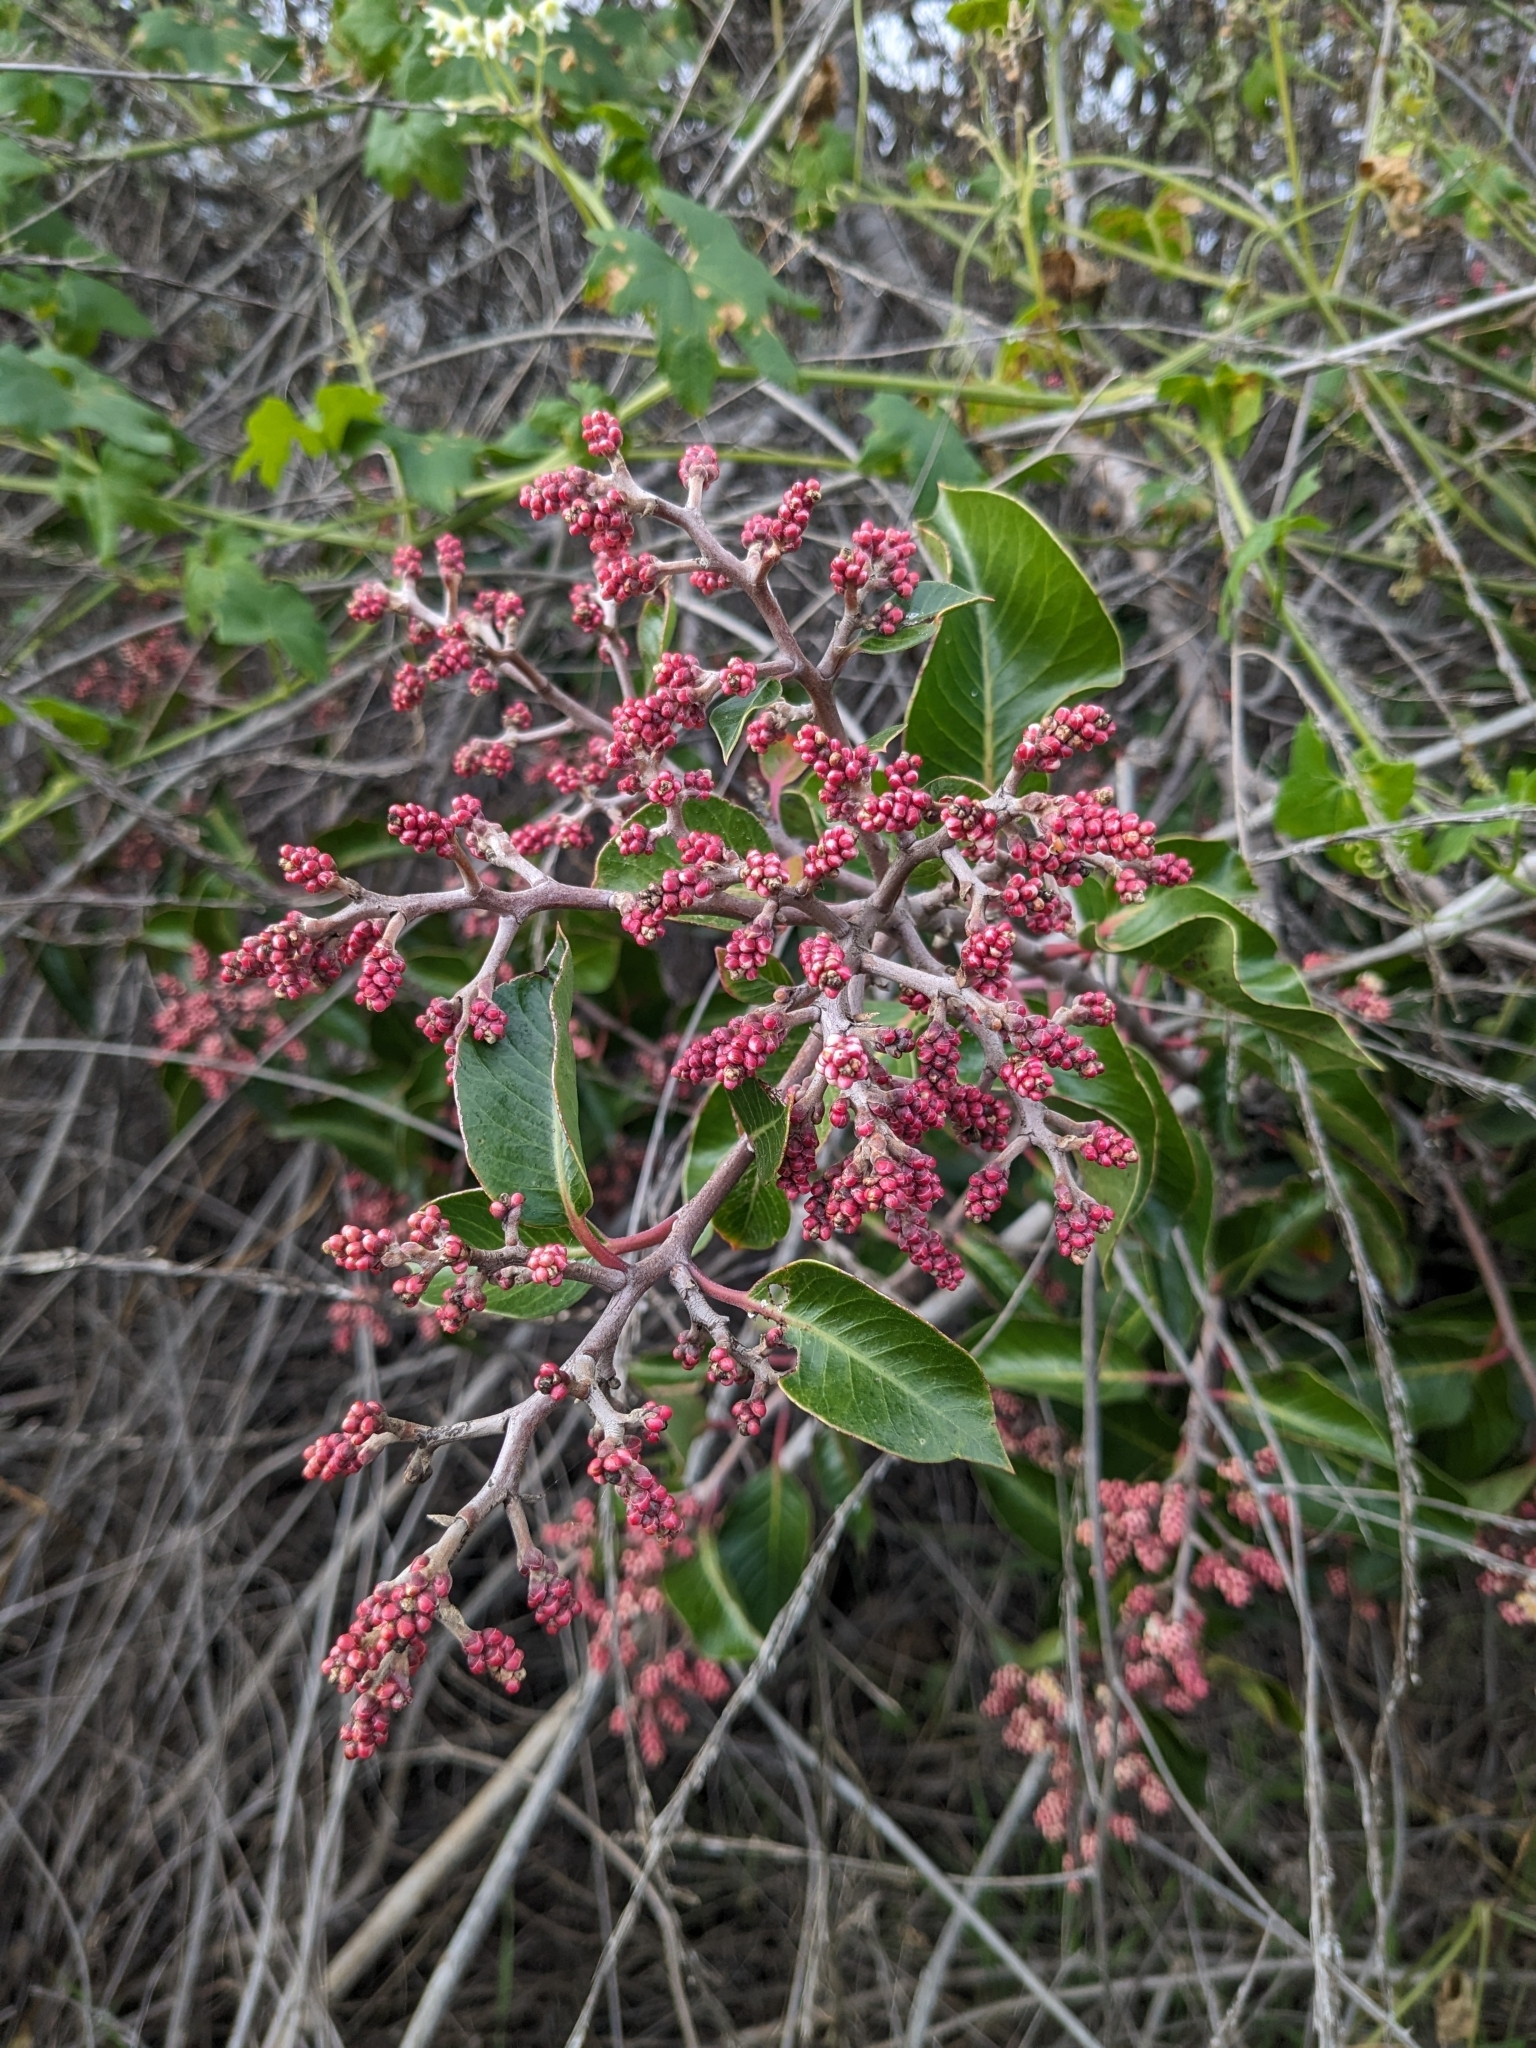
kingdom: Plantae
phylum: Tracheophyta
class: Magnoliopsida
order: Sapindales
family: Anacardiaceae
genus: Rhus
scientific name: Rhus ovata
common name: Sugar sumac
